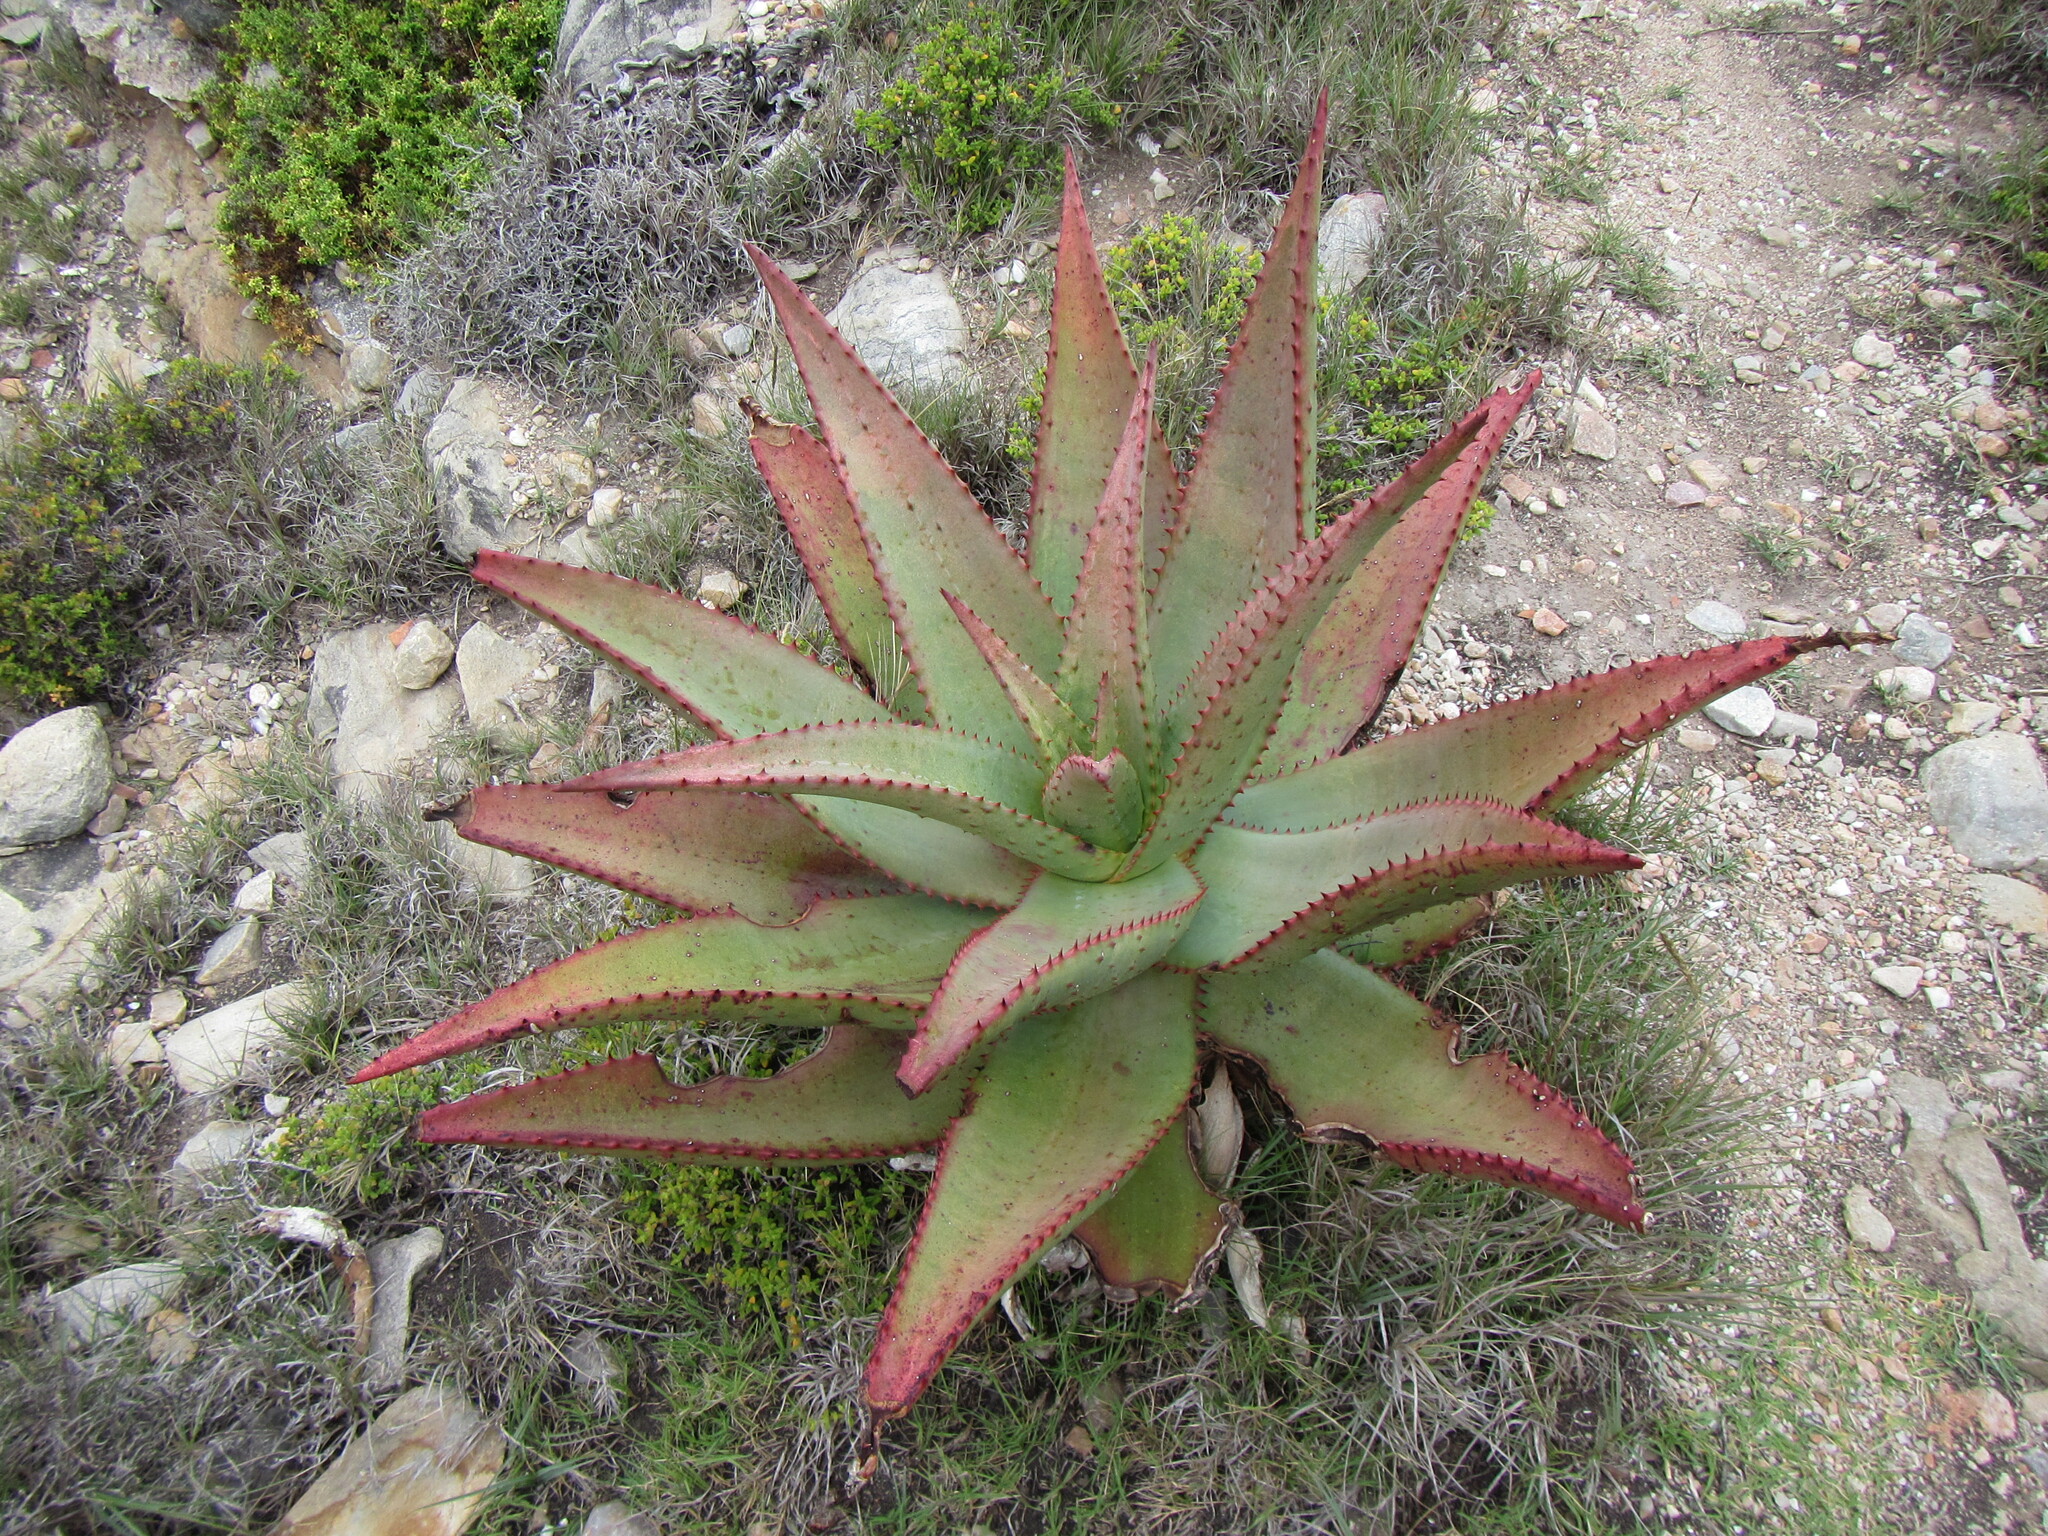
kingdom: Plantae
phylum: Tracheophyta
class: Liliopsida
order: Asparagales
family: Asphodelaceae
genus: Aloe
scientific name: Aloe ferox
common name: Bitter aloe
